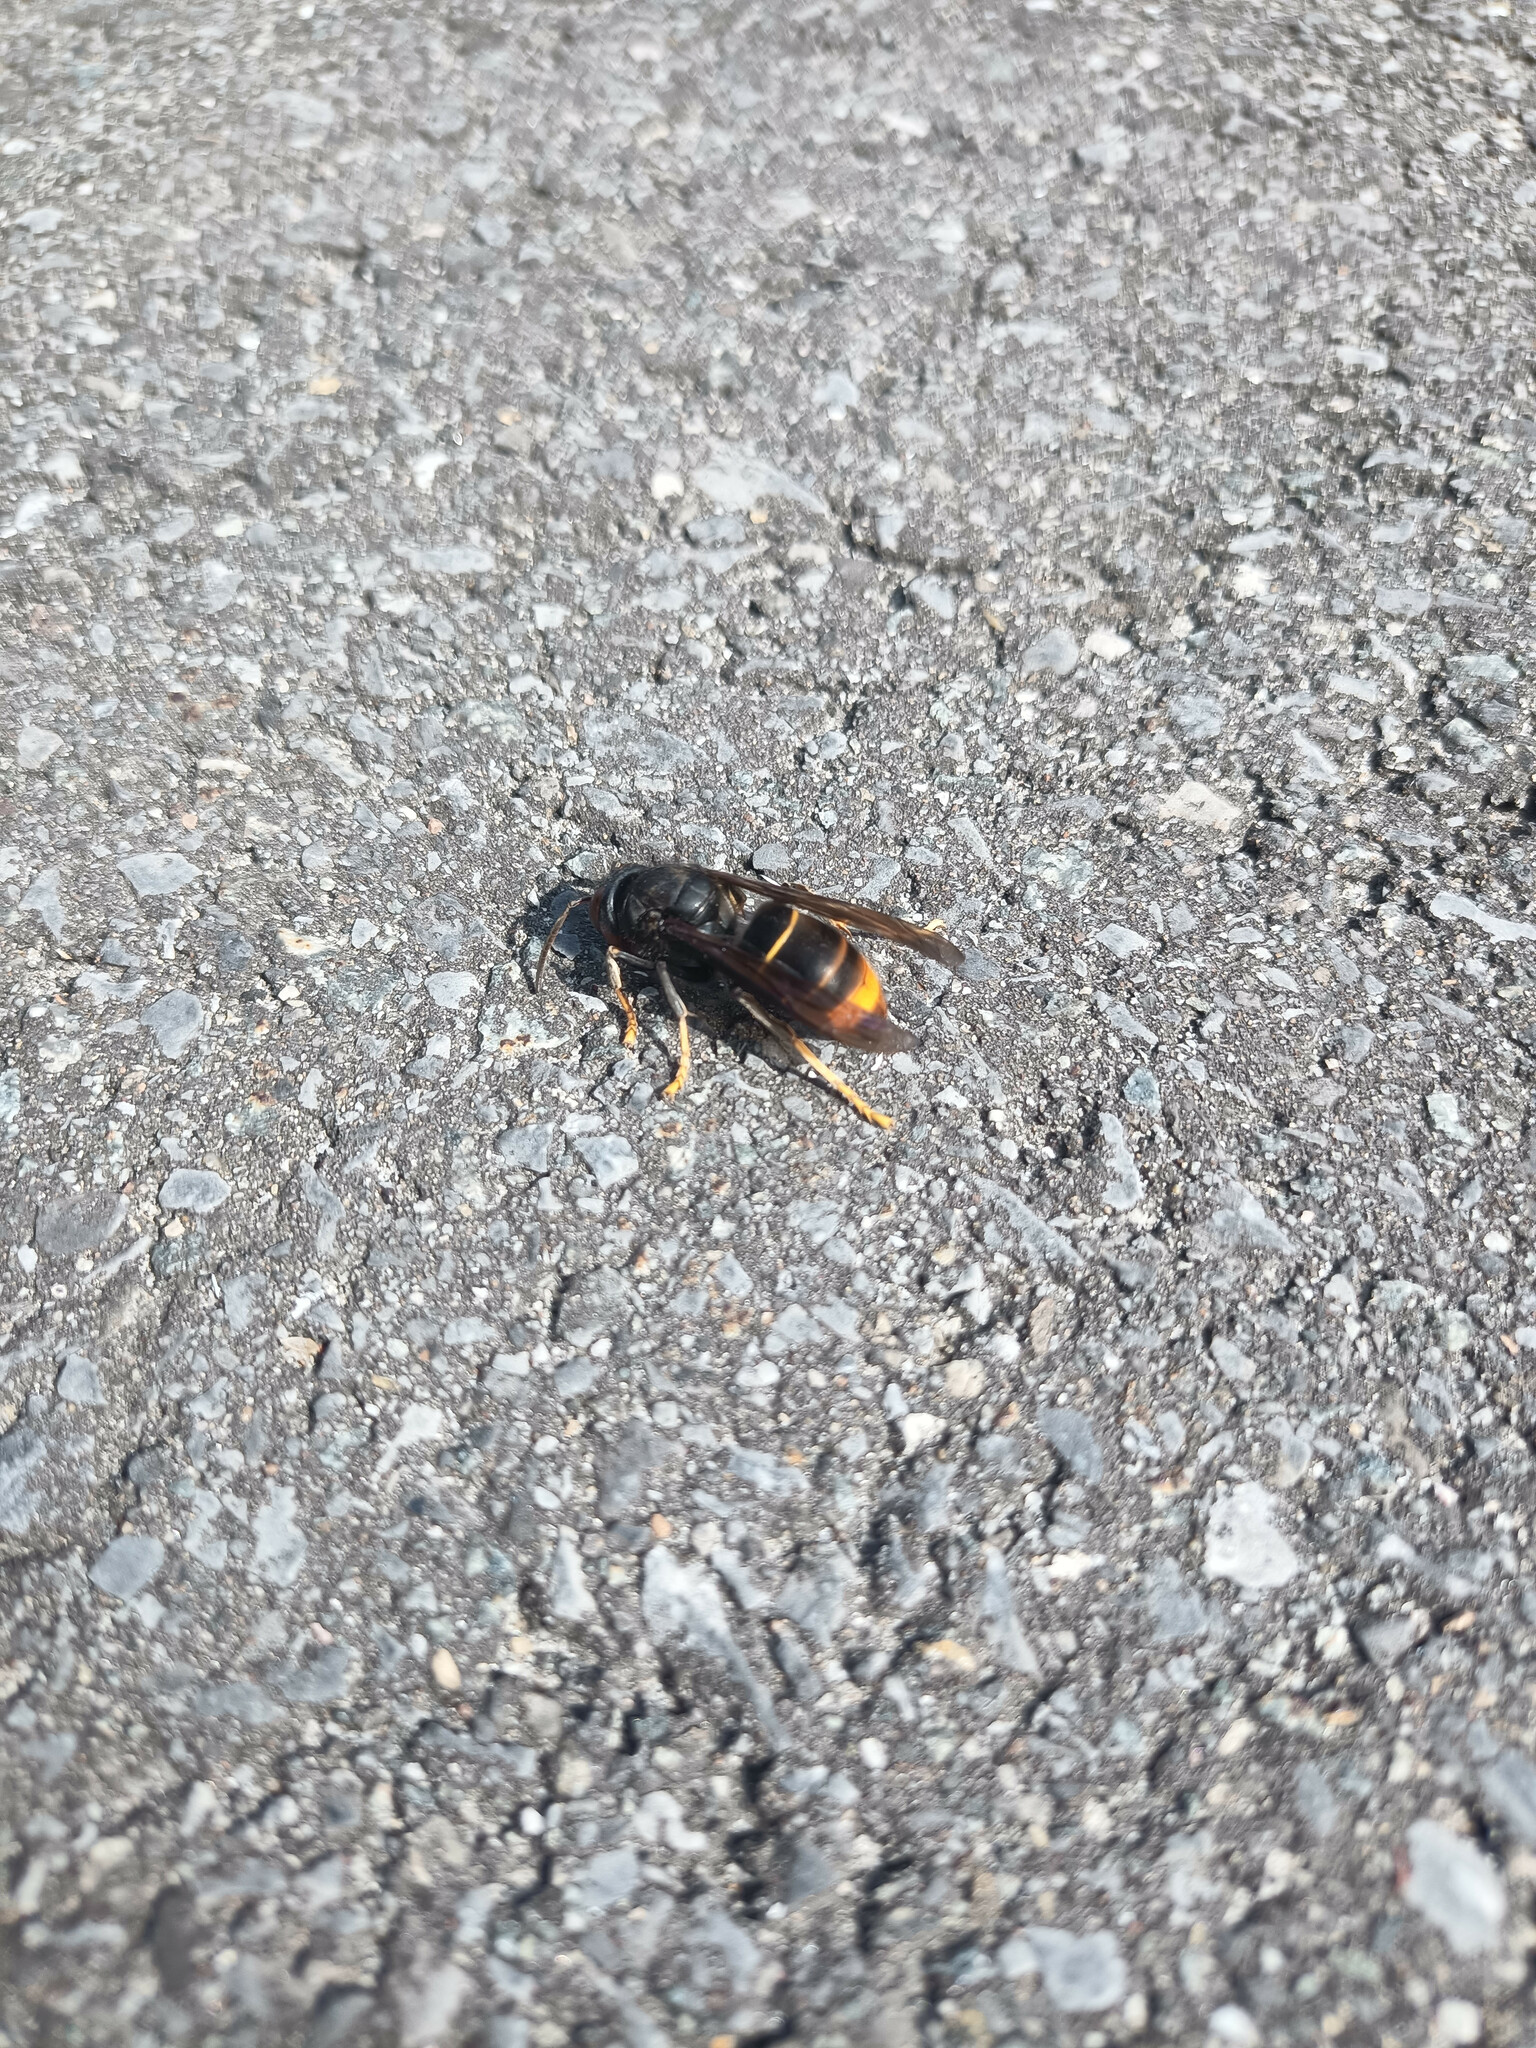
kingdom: Animalia
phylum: Arthropoda
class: Insecta
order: Hymenoptera
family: Vespidae
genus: Vespa
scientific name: Vespa velutina
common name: Asian hornet
